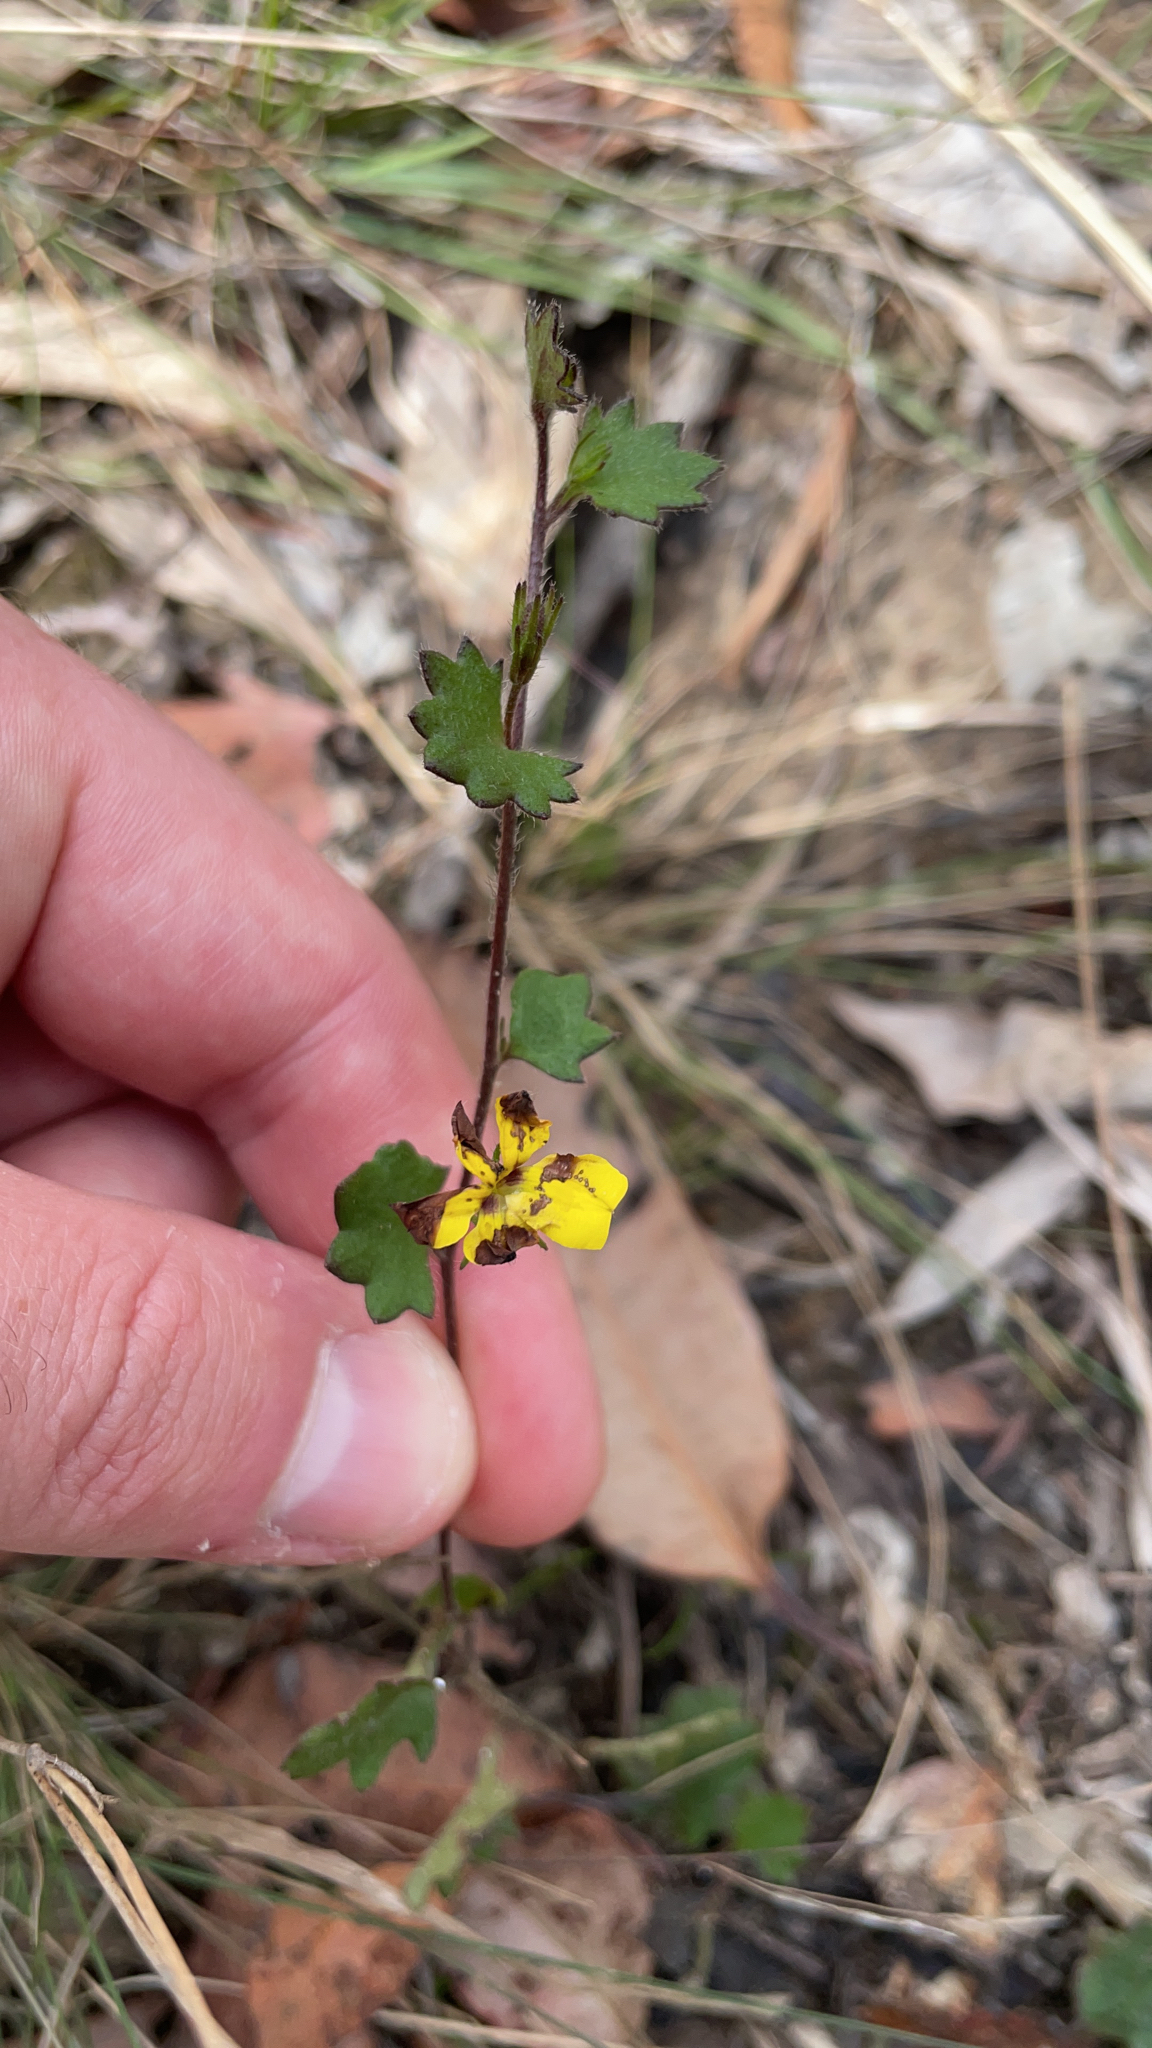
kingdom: Plantae
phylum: Tracheophyta
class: Magnoliopsida
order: Asterales
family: Goodeniaceae
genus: Goodenia
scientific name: Goodenia rotundifolia
